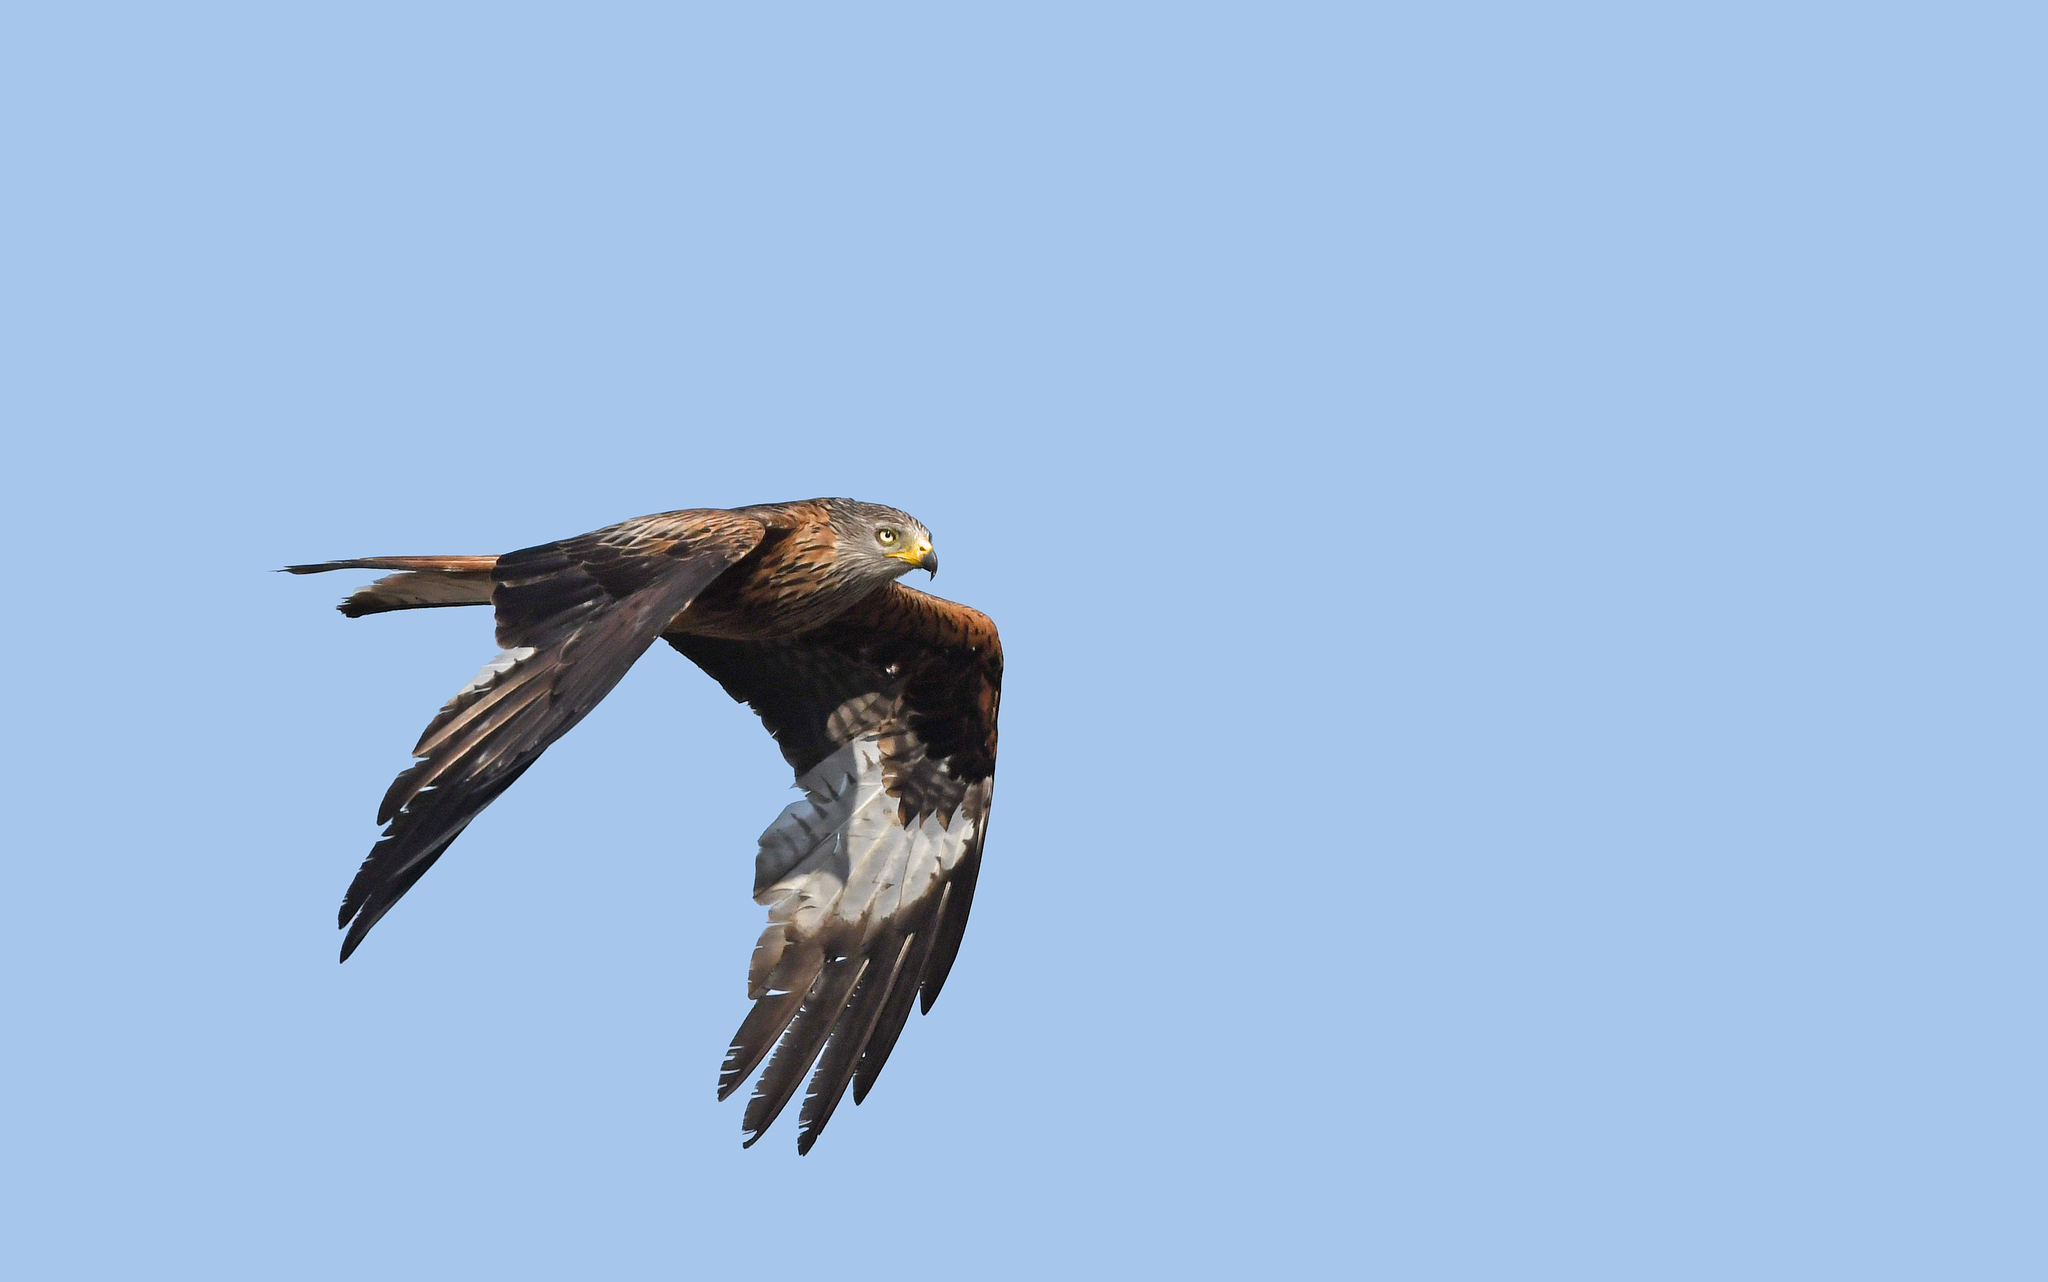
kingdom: Animalia
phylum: Chordata
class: Aves
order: Accipitriformes
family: Accipitridae
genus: Milvus
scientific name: Milvus milvus
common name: Red kite
